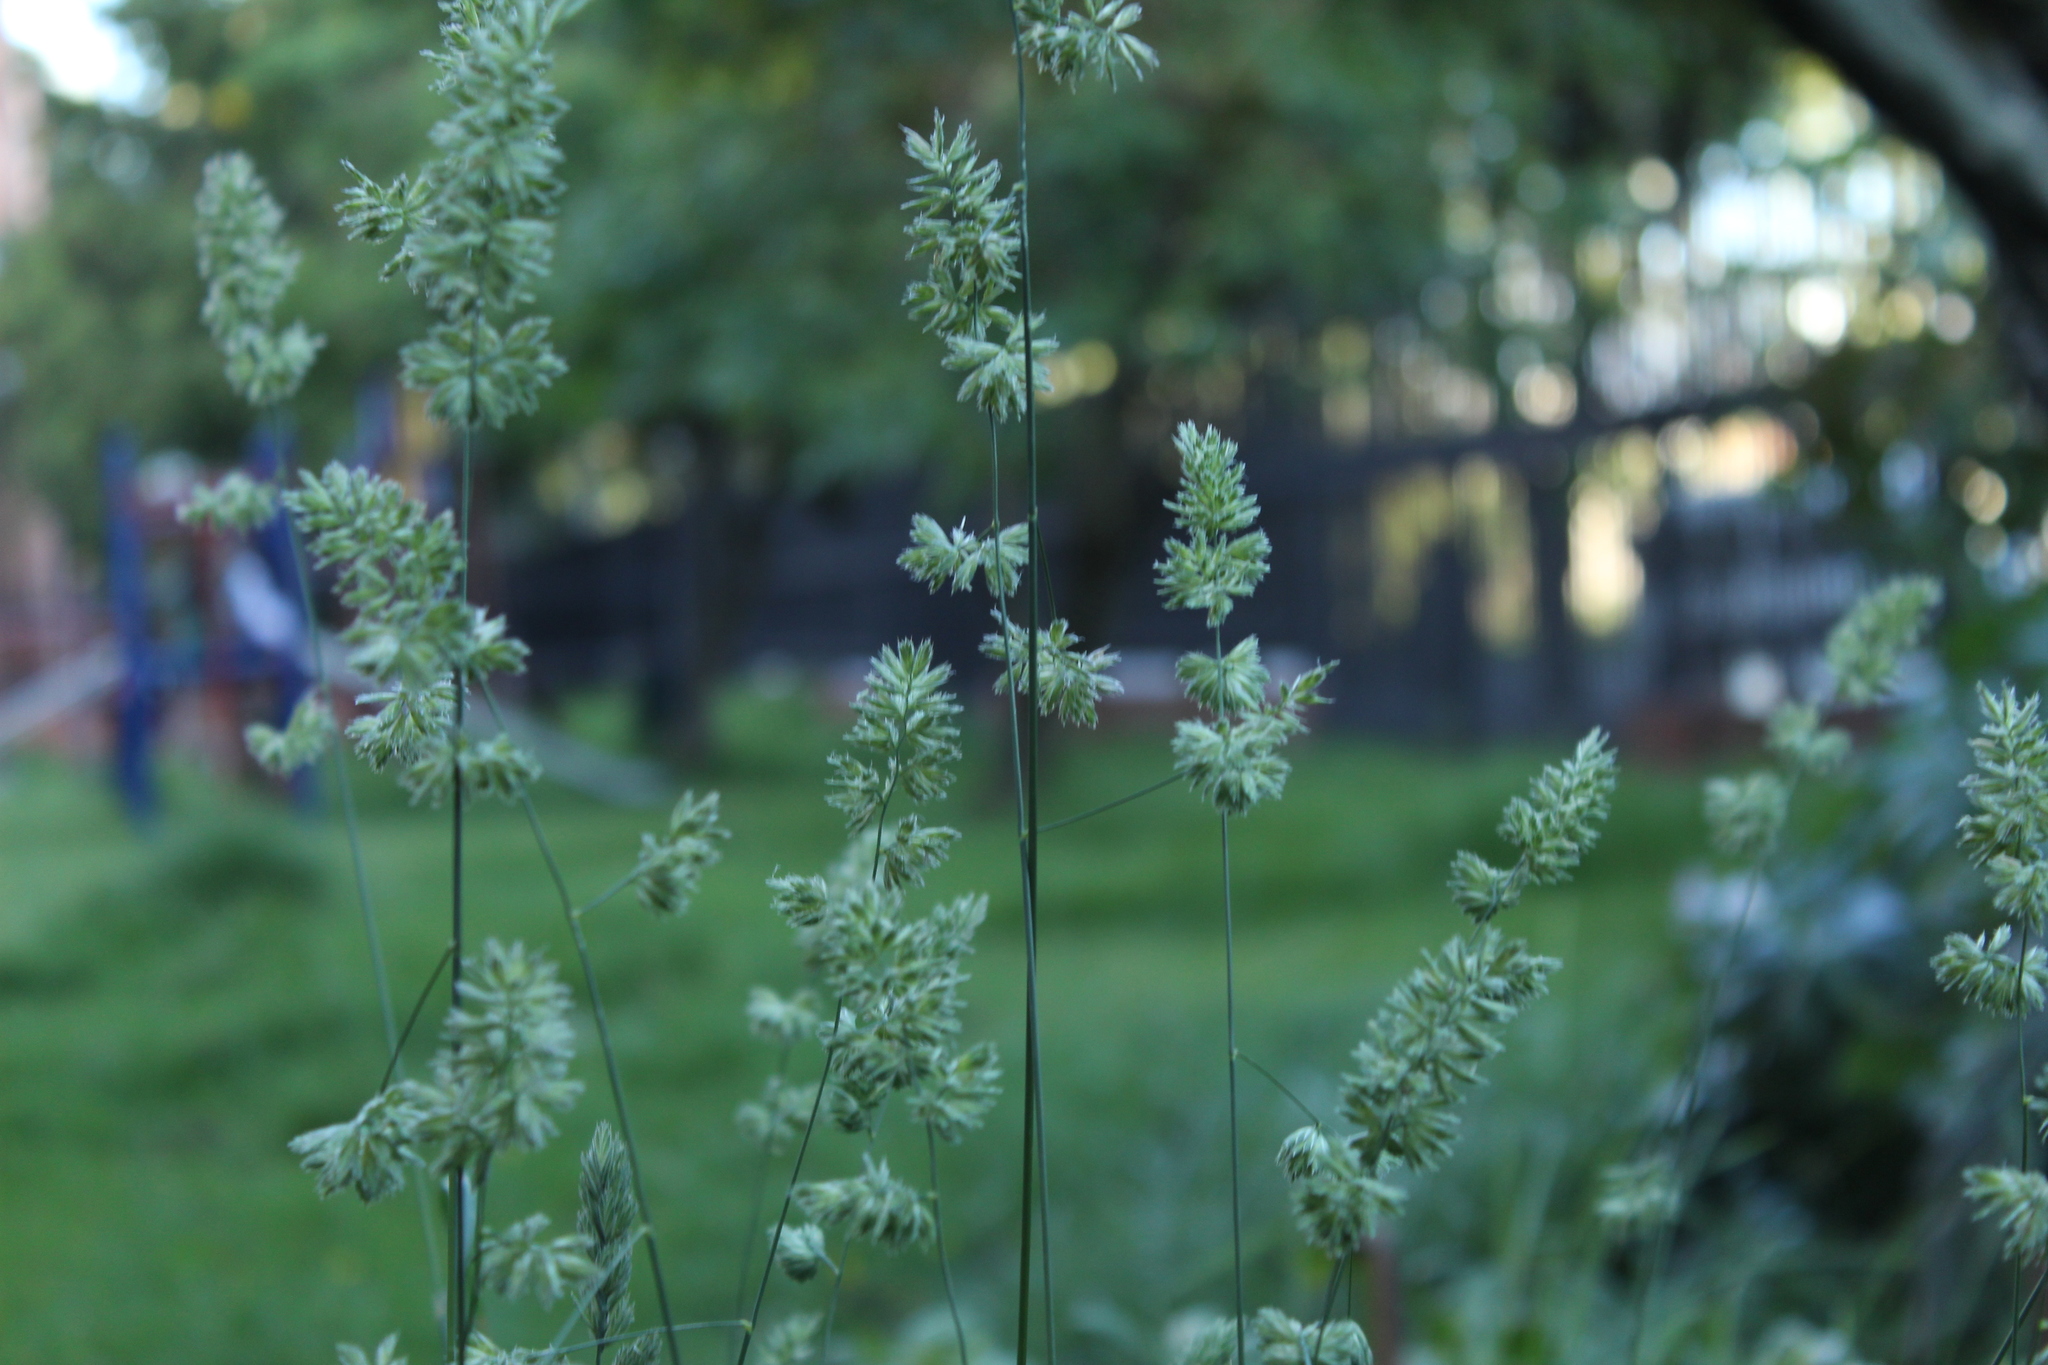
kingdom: Plantae
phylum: Tracheophyta
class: Liliopsida
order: Poales
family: Poaceae
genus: Dactylis
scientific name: Dactylis glomerata
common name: Orchardgrass
